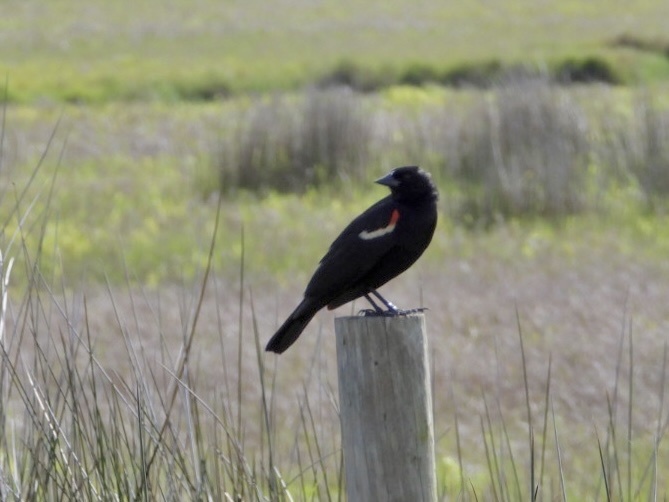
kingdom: Animalia
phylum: Chordata
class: Aves
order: Passeriformes
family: Icteridae
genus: Agelaius
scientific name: Agelaius phoeniceus
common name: Red-winged blackbird
